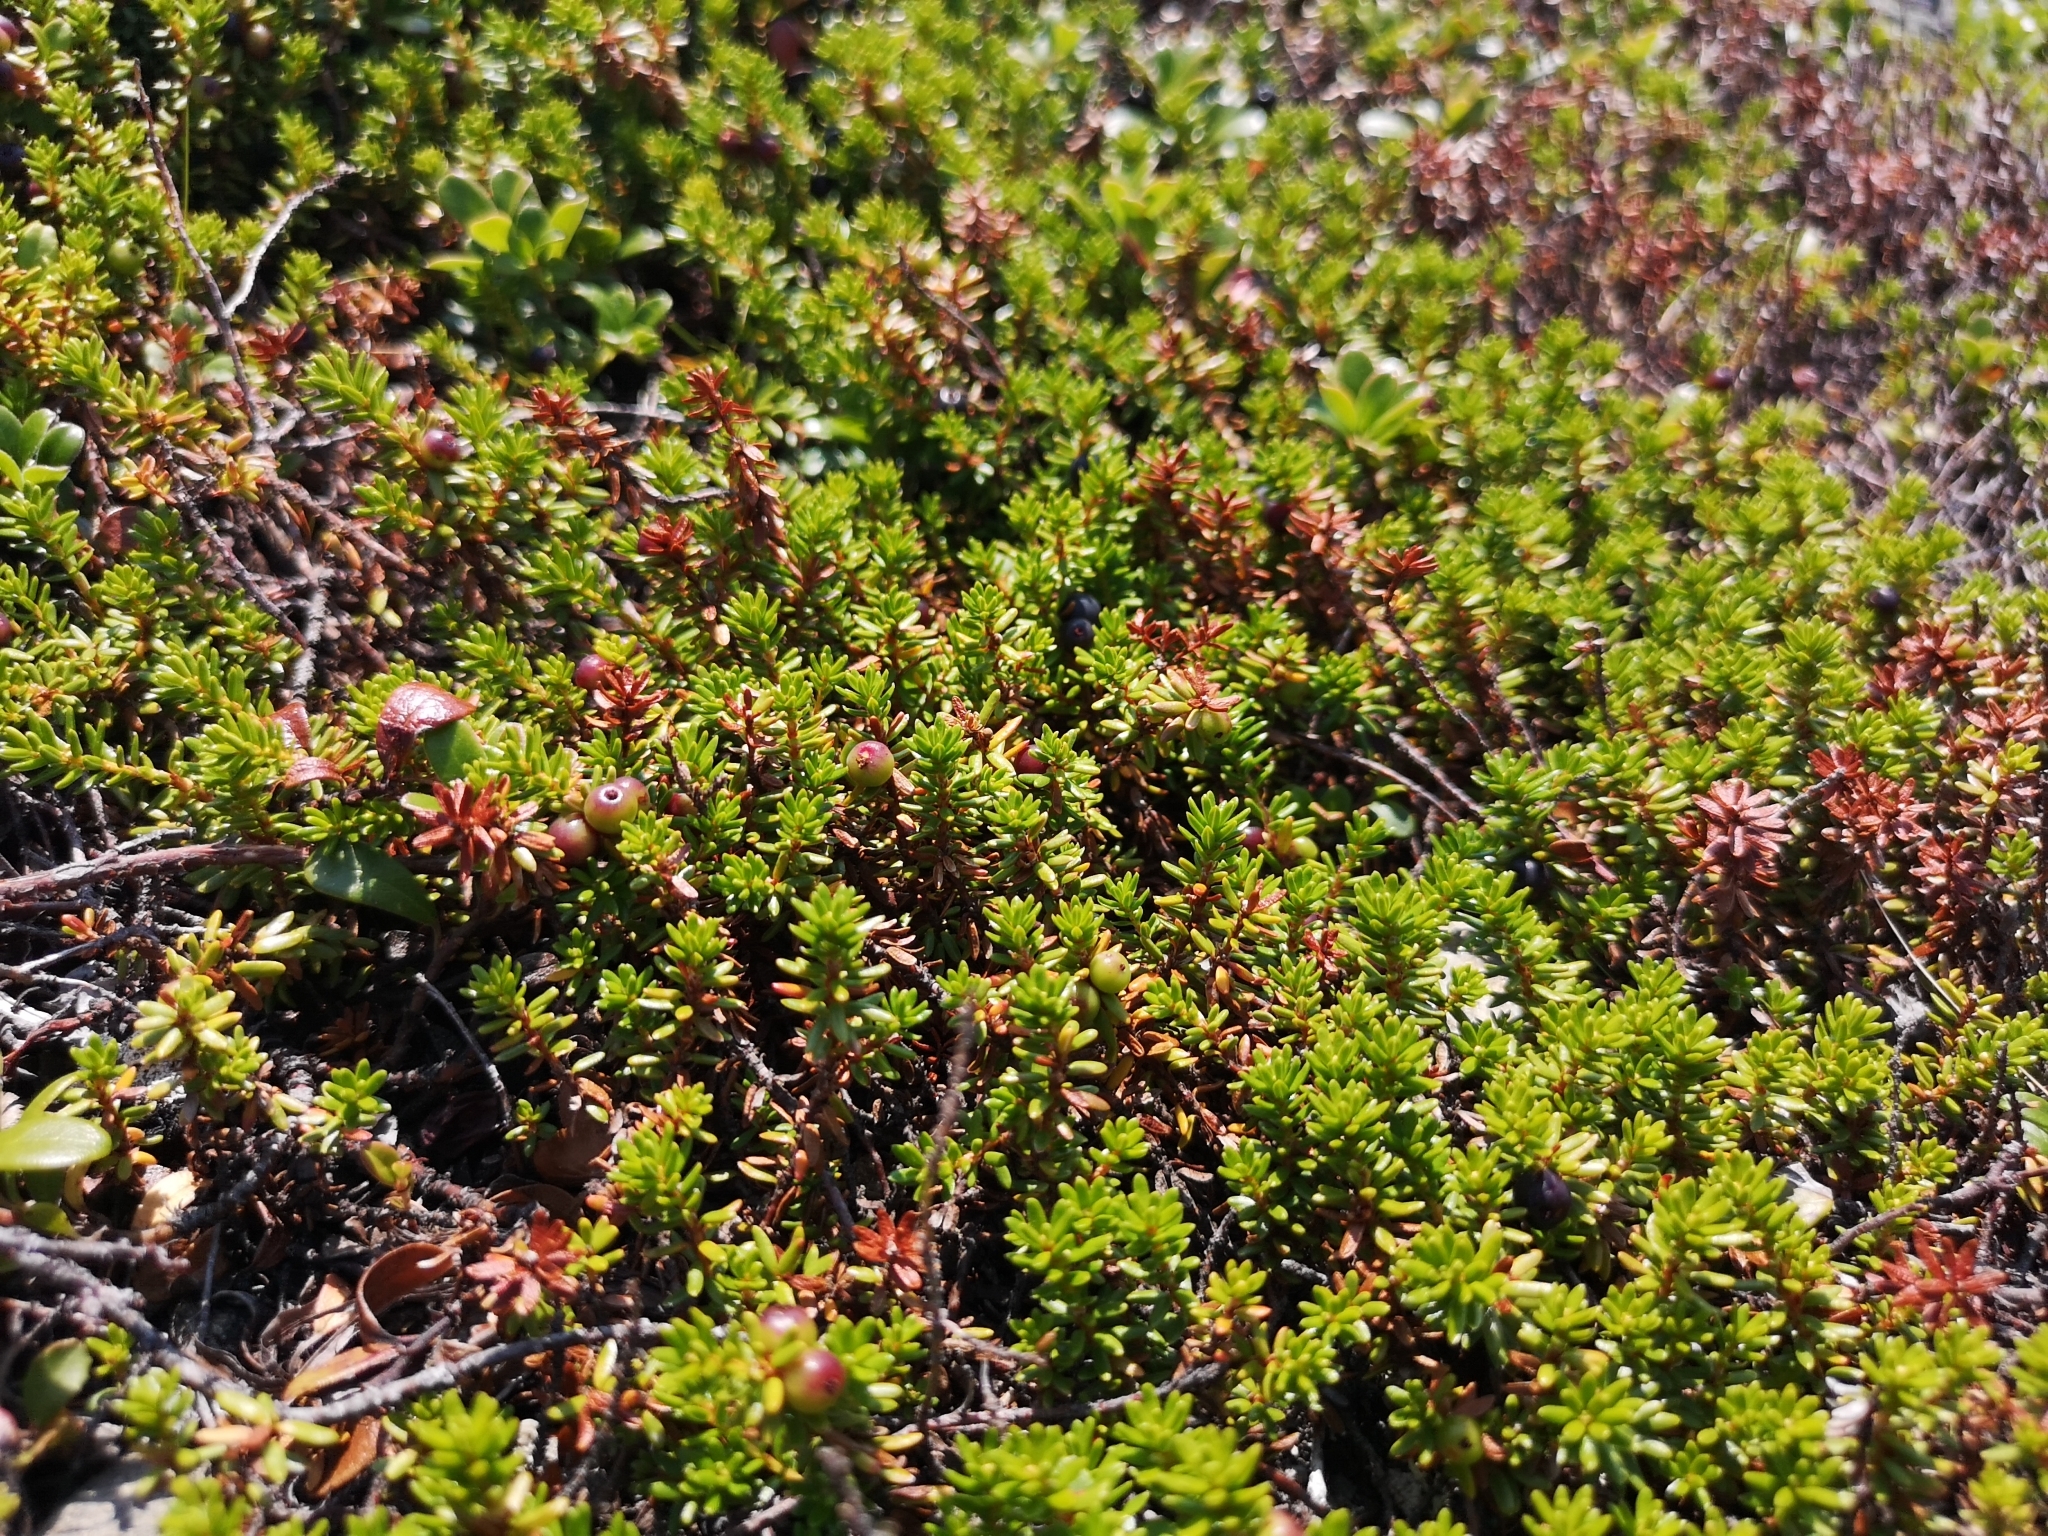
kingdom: Plantae
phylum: Tracheophyta
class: Magnoliopsida
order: Ericales
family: Ericaceae
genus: Empetrum
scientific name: Empetrum nigrum
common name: Black crowberry
